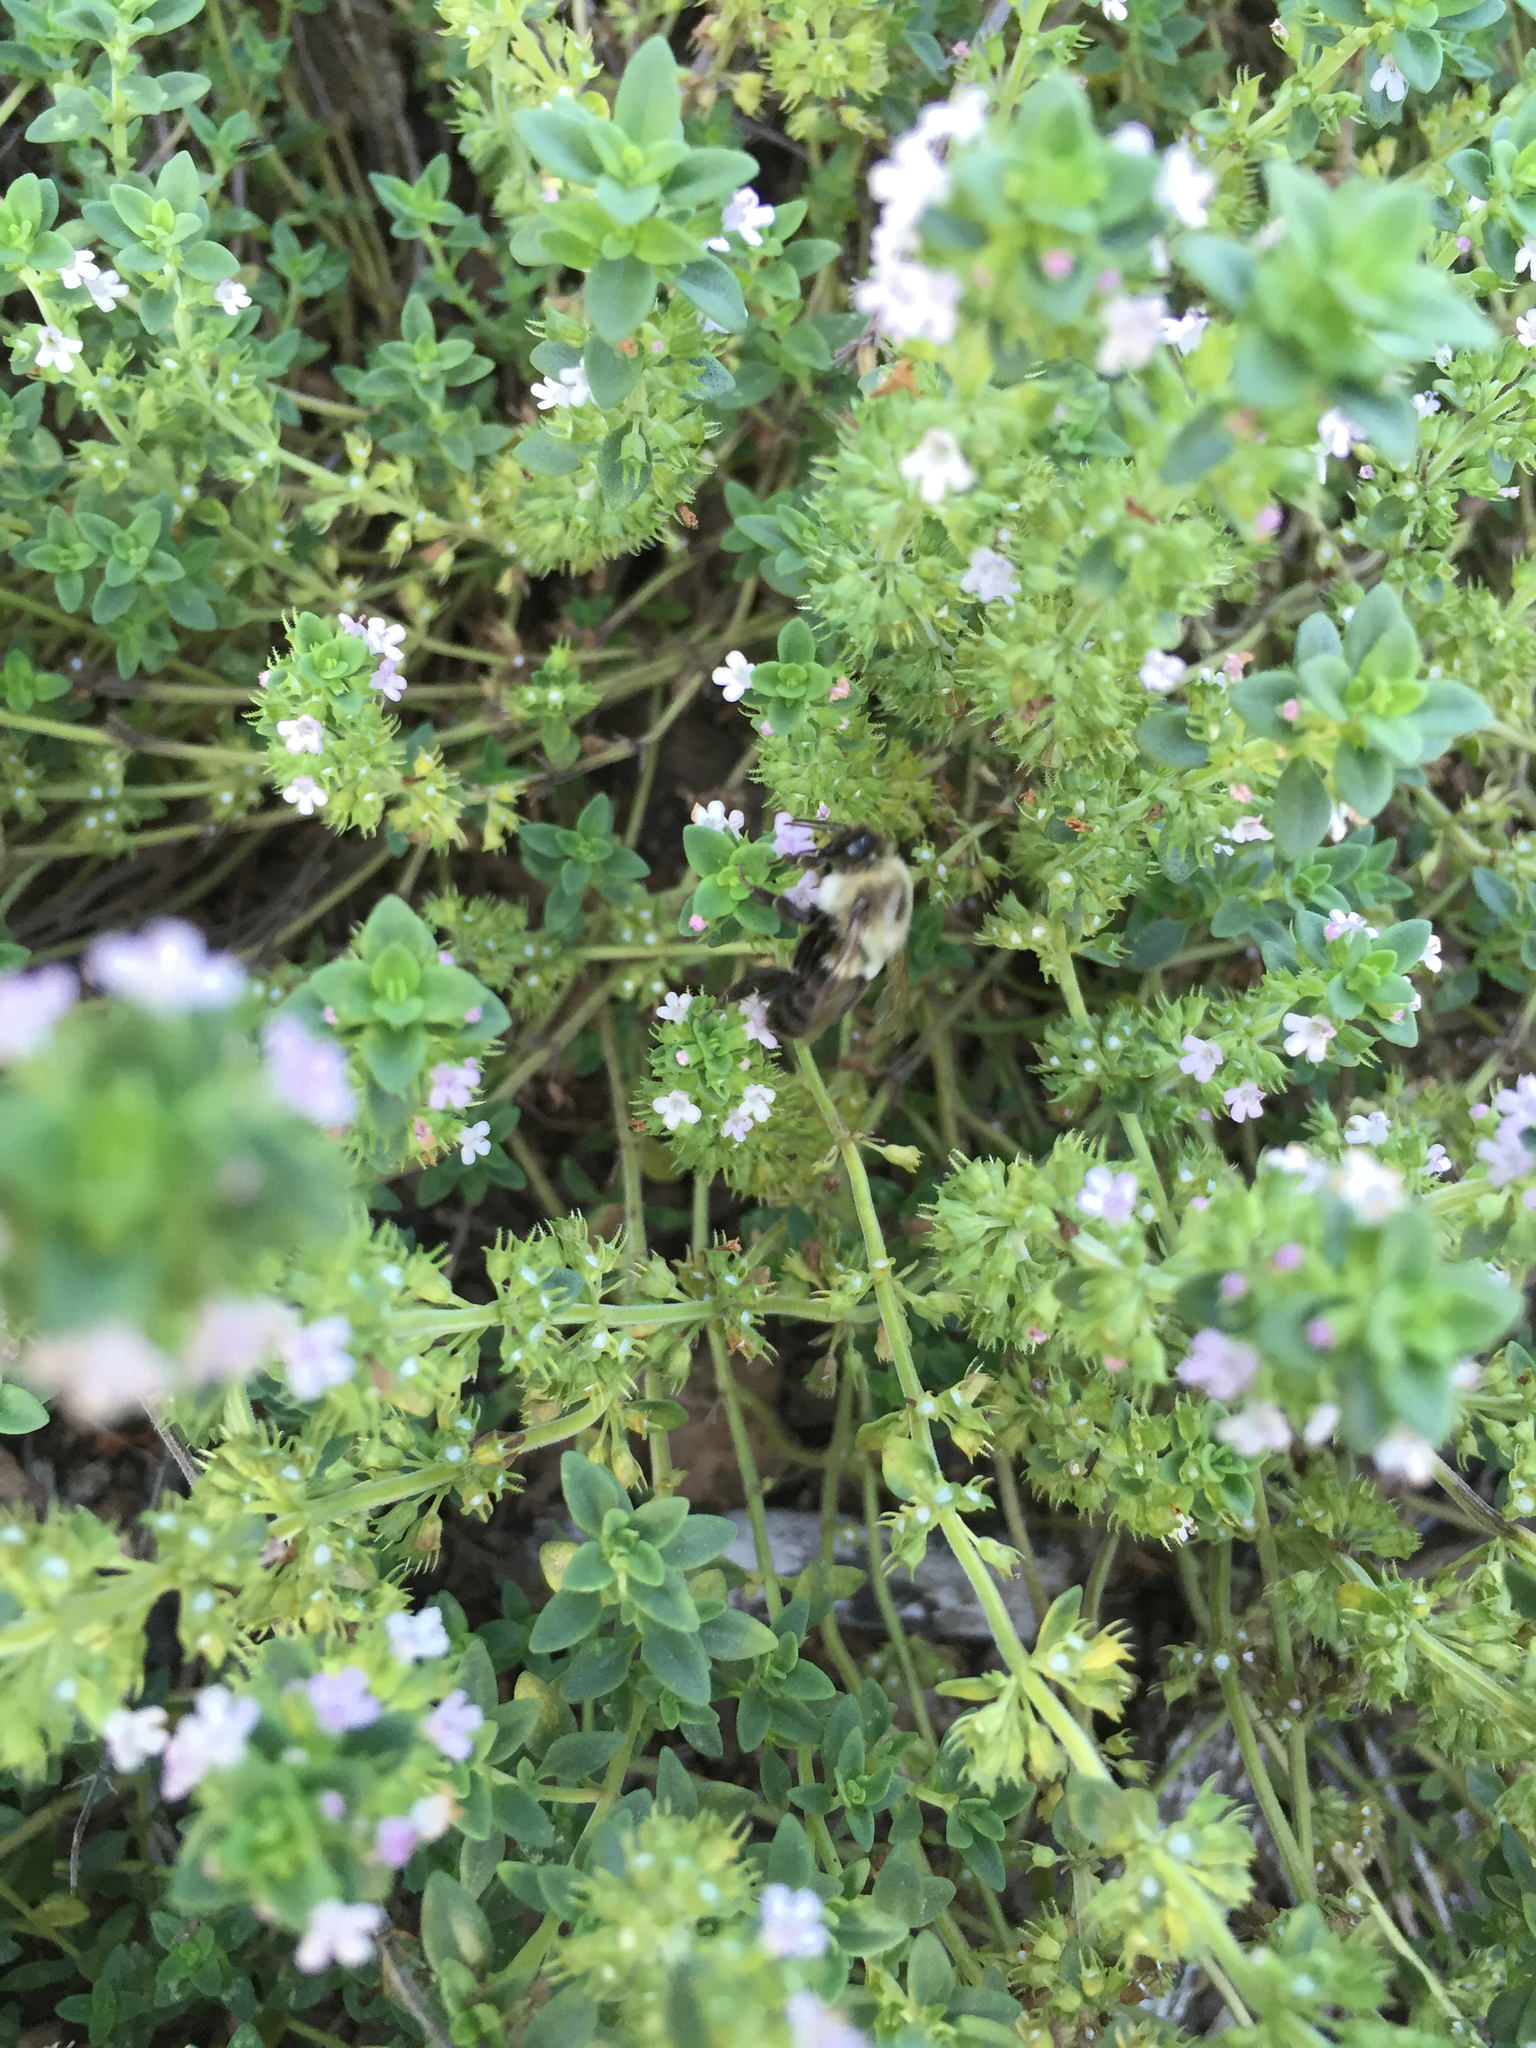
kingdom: Animalia
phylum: Arthropoda
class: Insecta
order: Hymenoptera
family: Apidae
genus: Bombus
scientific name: Bombus impatiens
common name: Common eastern bumble bee
